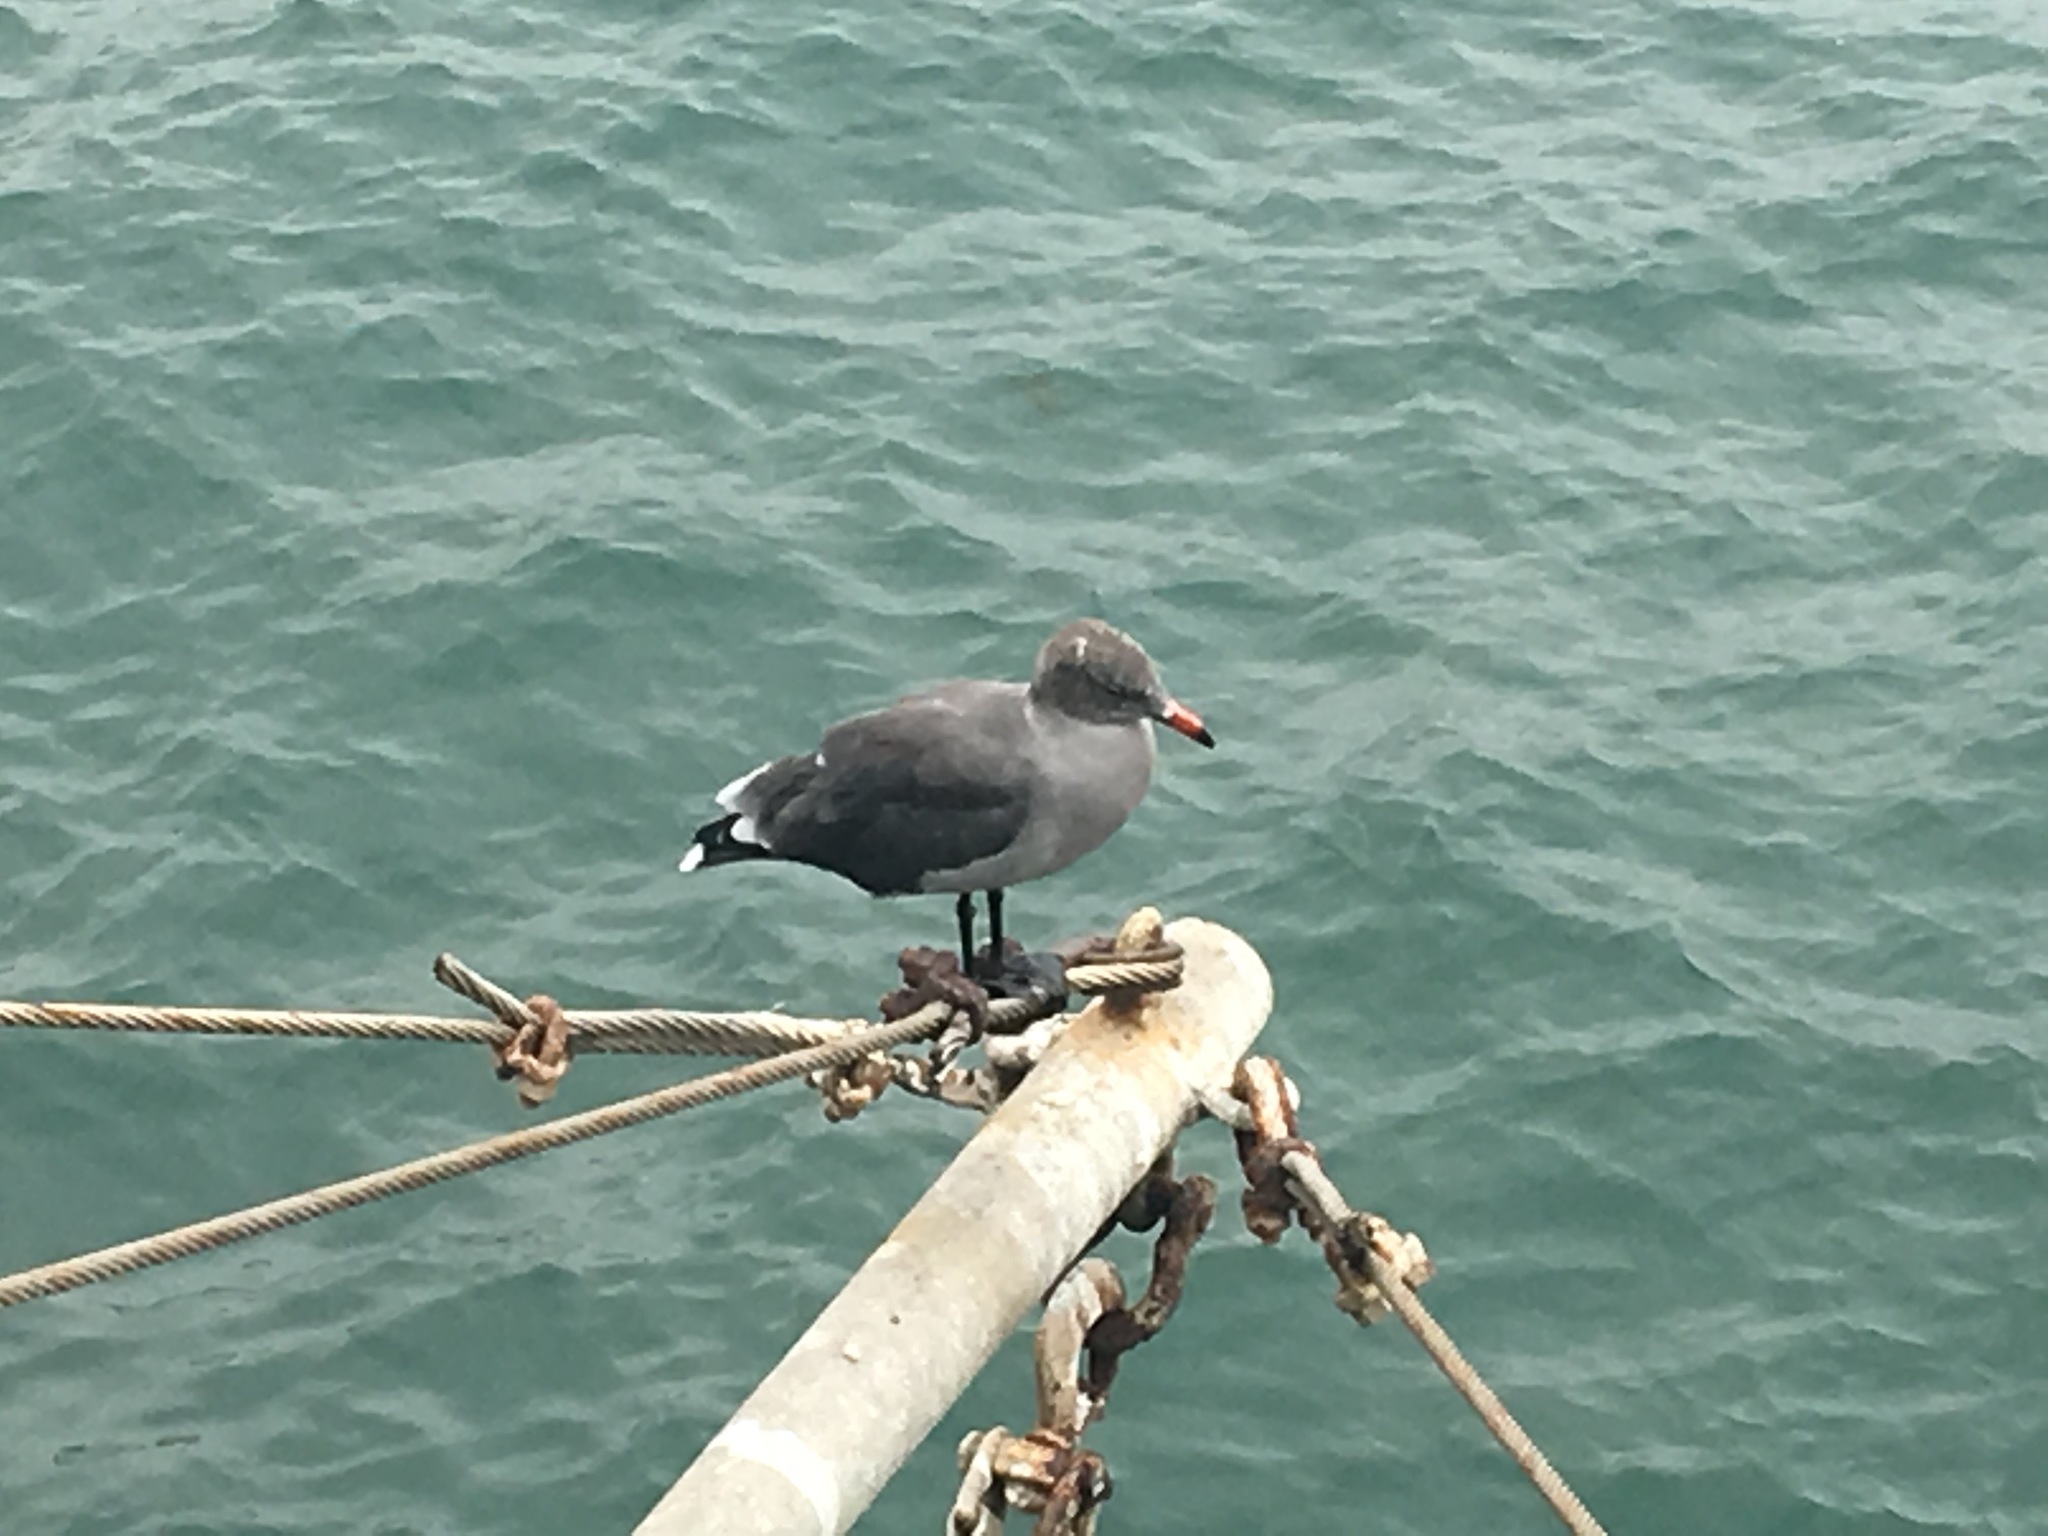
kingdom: Animalia
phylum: Chordata
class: Aves
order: Charadriiformes
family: Laridae
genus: Larus
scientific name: Larus heermanni
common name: Heermann's gull
